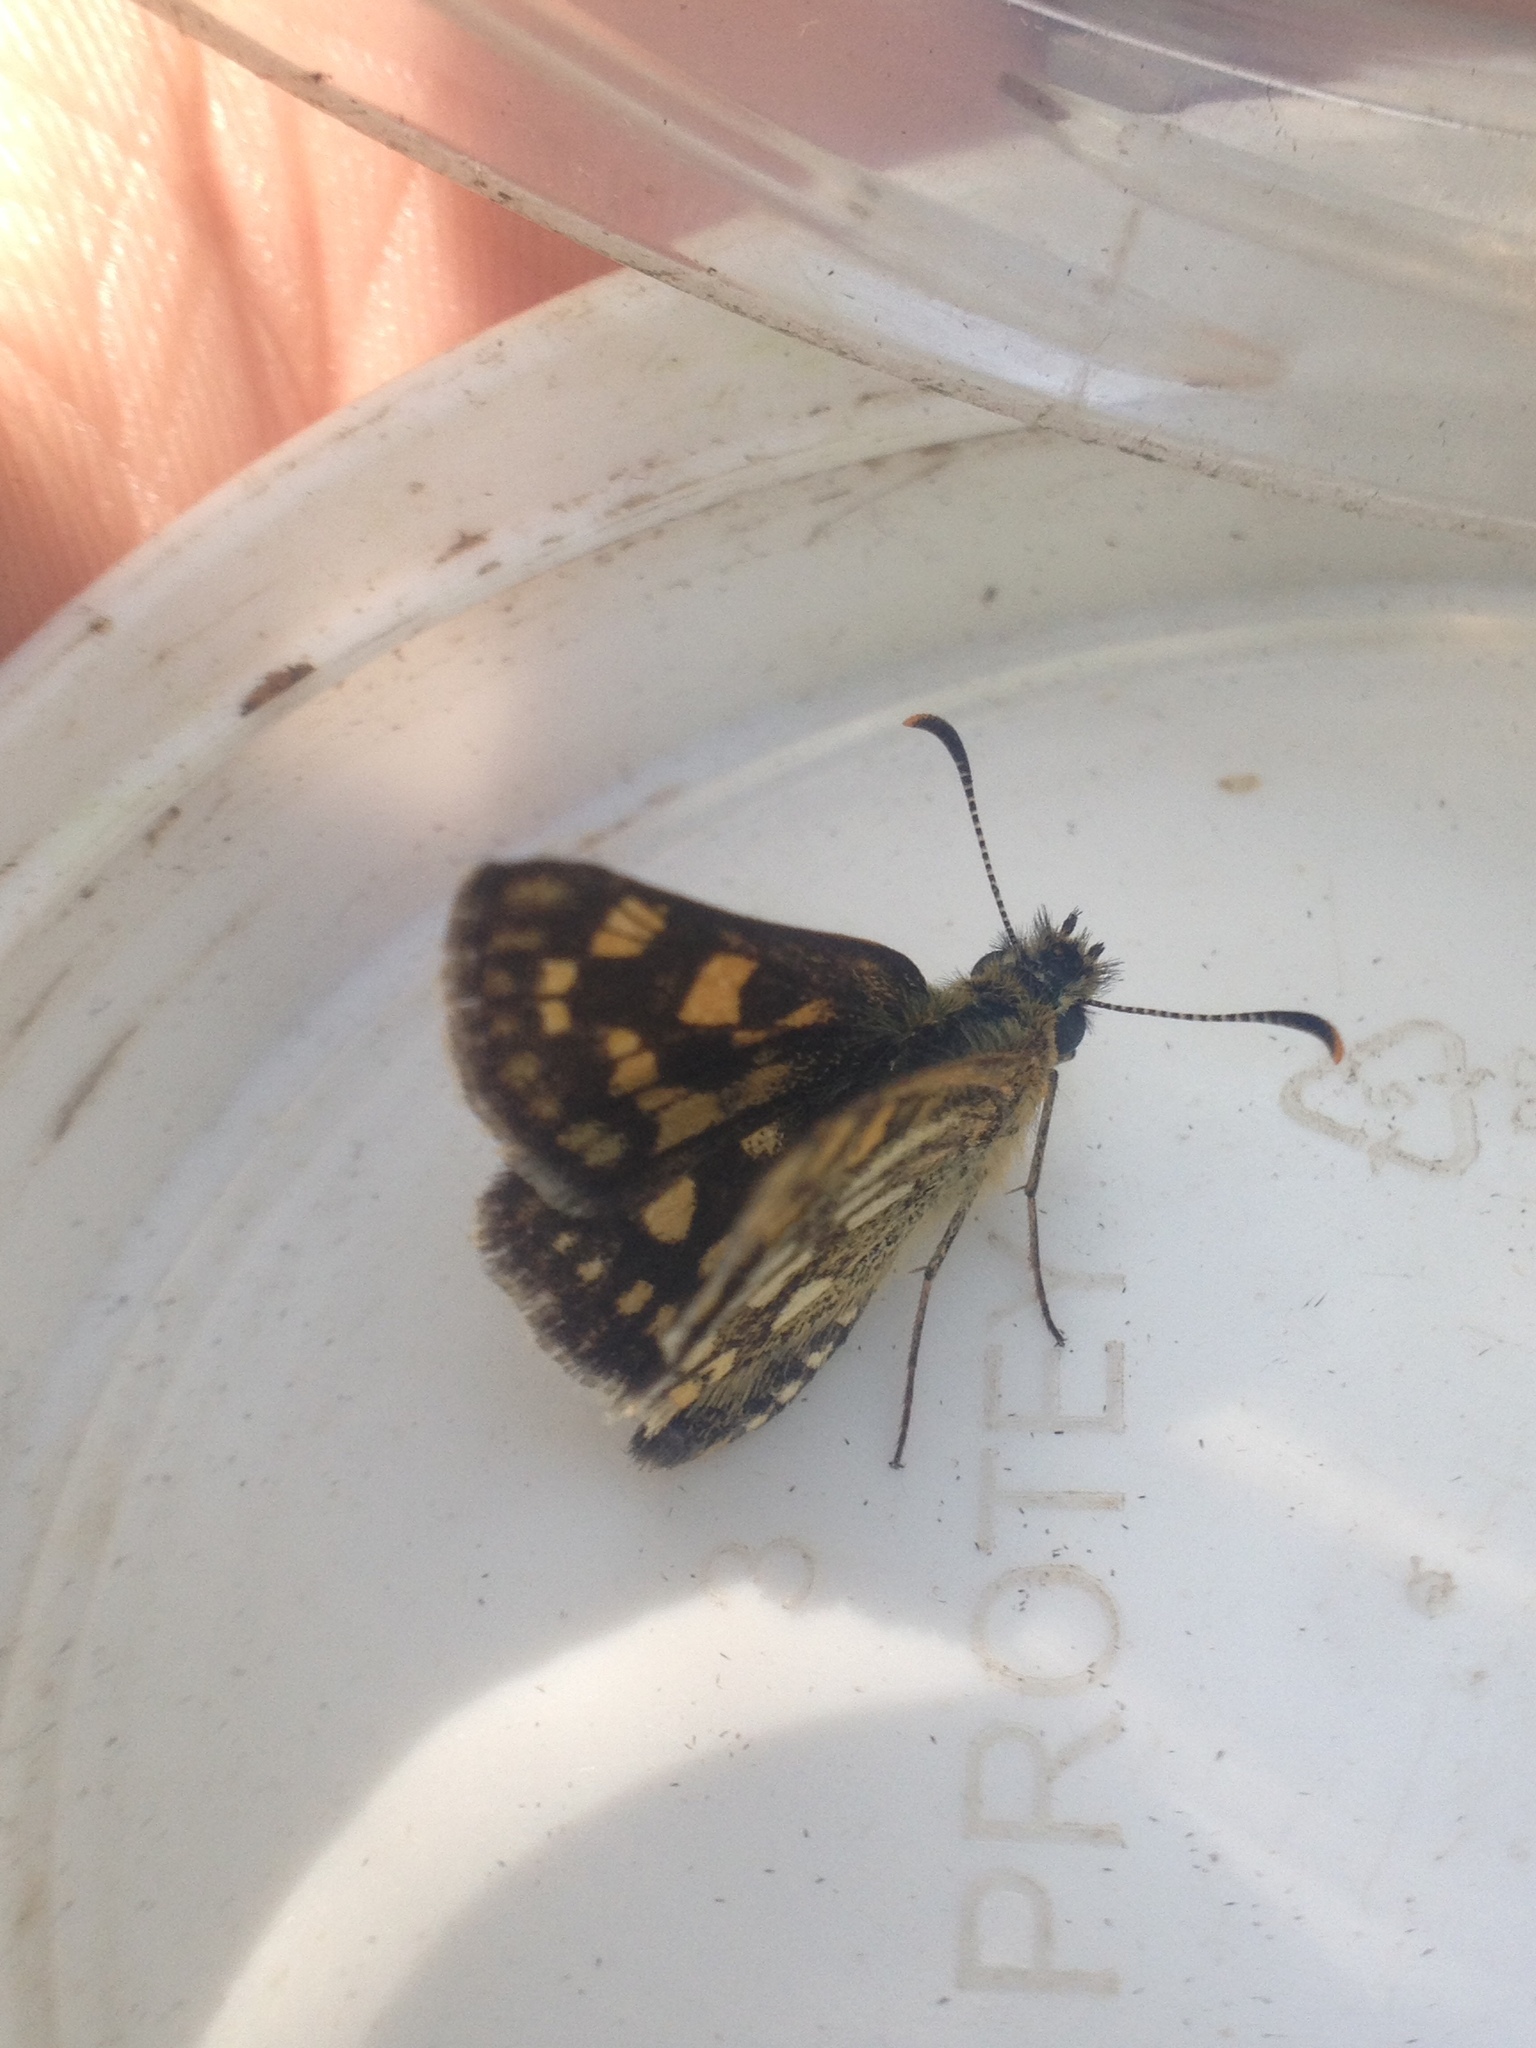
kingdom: Animalia
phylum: Arthropoda
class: Insecta
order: Lepidoptera
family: Hesperiidae
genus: Carterocephalus
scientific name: Carterocephalus palaemon
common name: Chequered skipper
